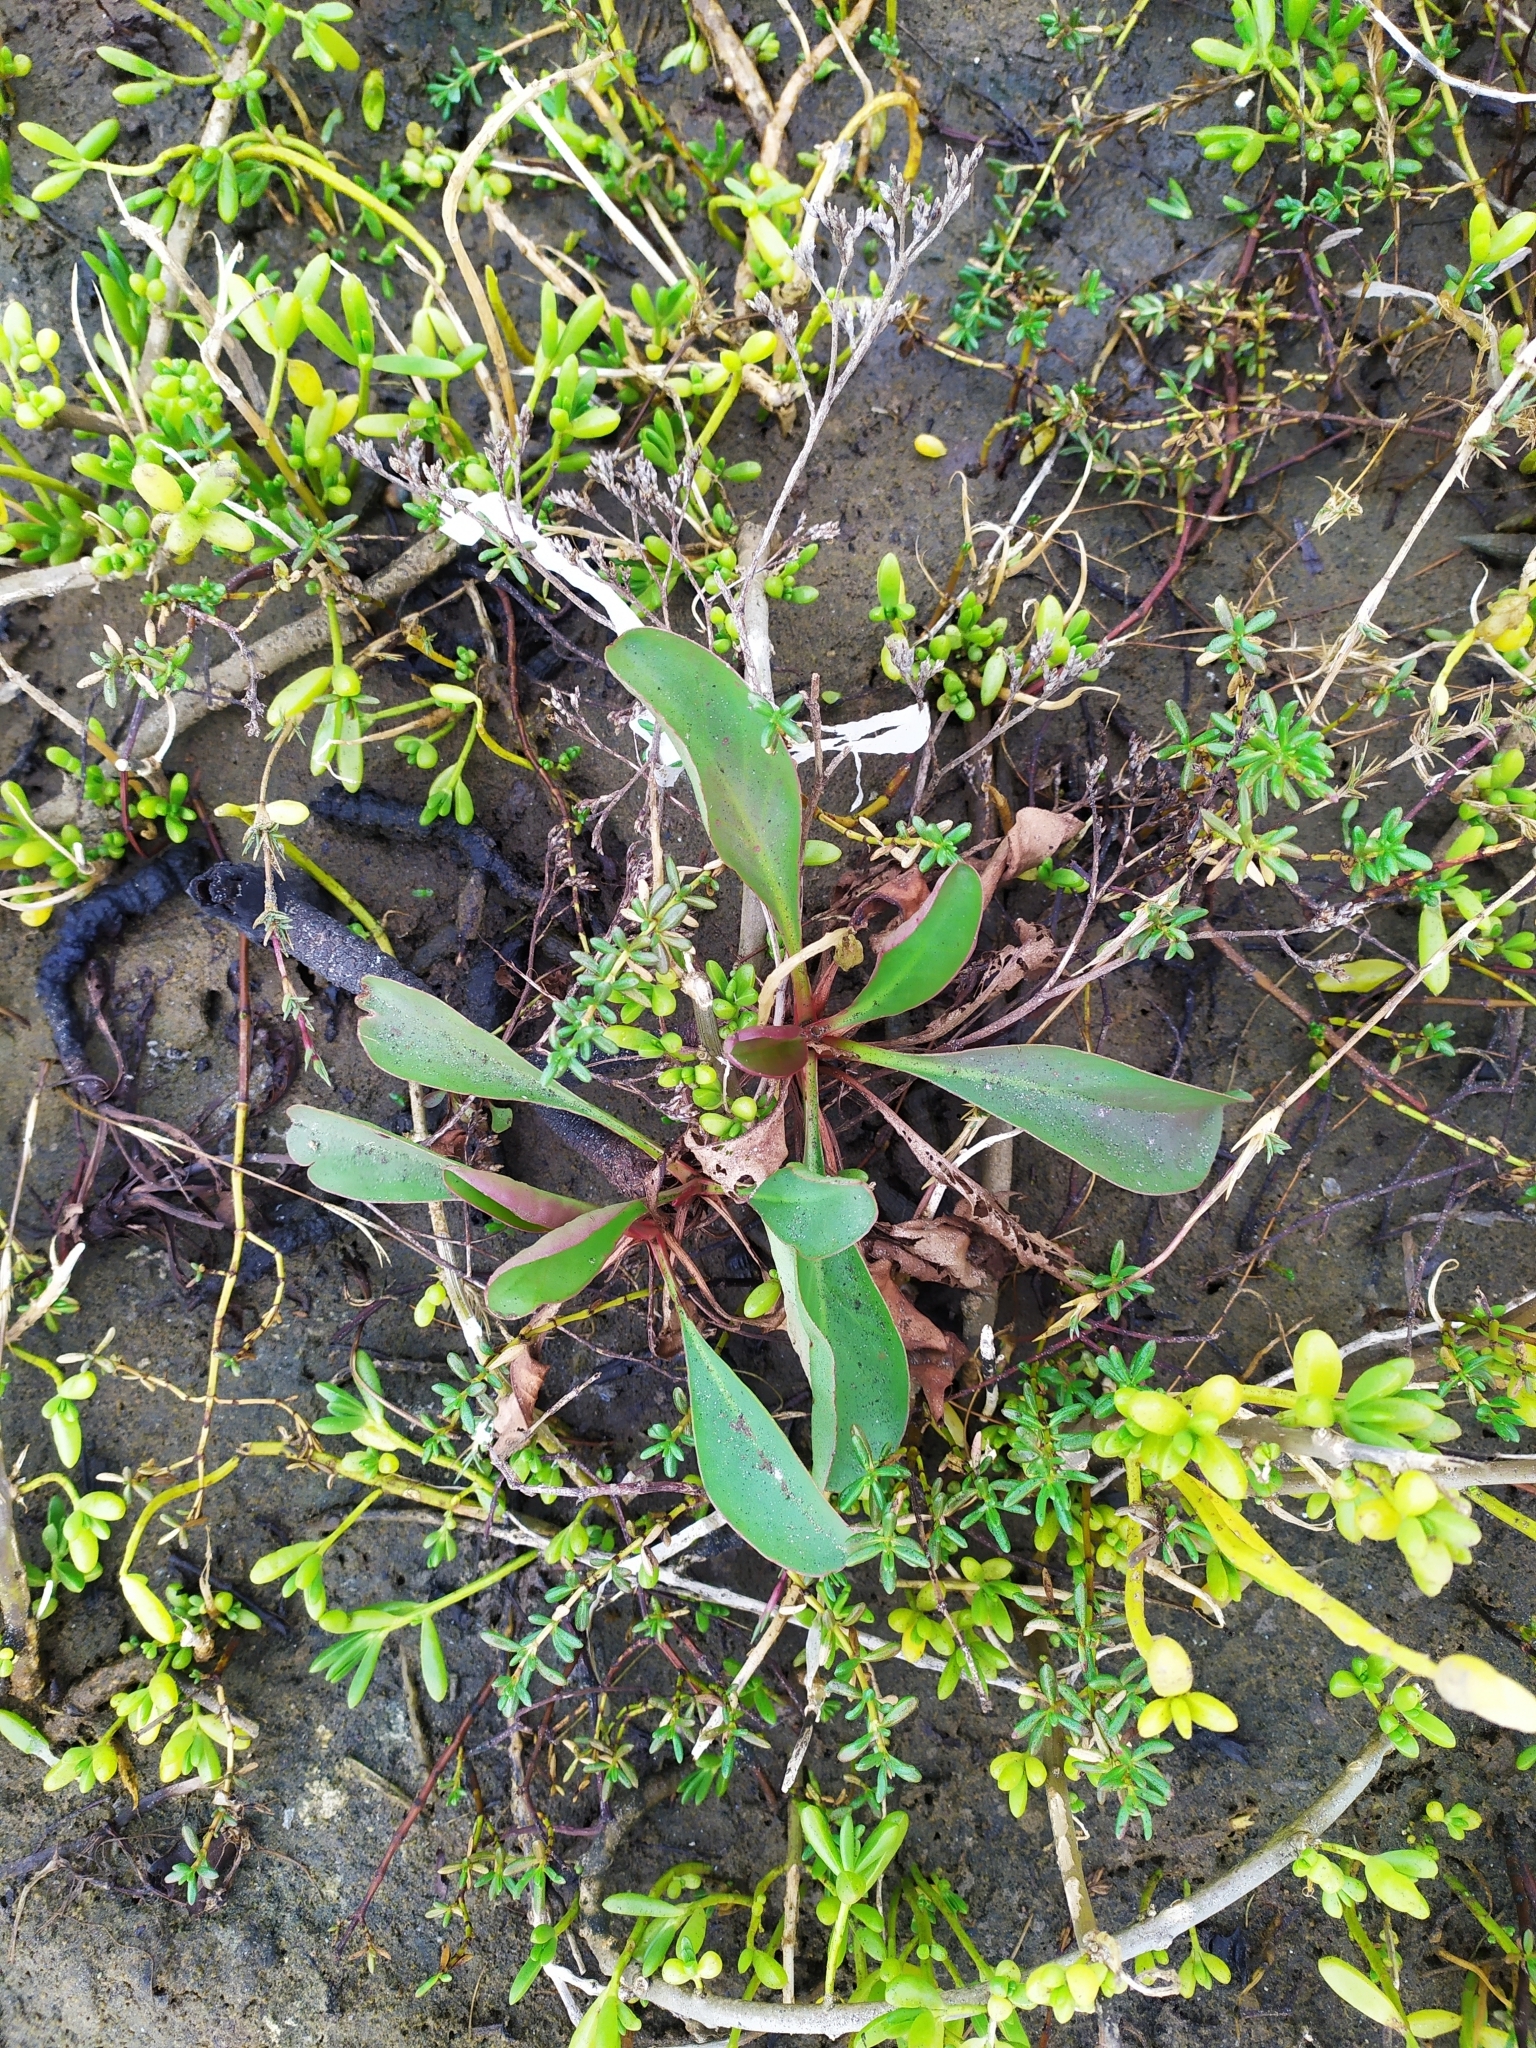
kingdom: Plantae
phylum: Tracheophyta
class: Magnoliopsida
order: Caryophyllales
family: Plumbaginaceae
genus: Limonium
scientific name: Limonium californicum
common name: Marsh-rosemary
